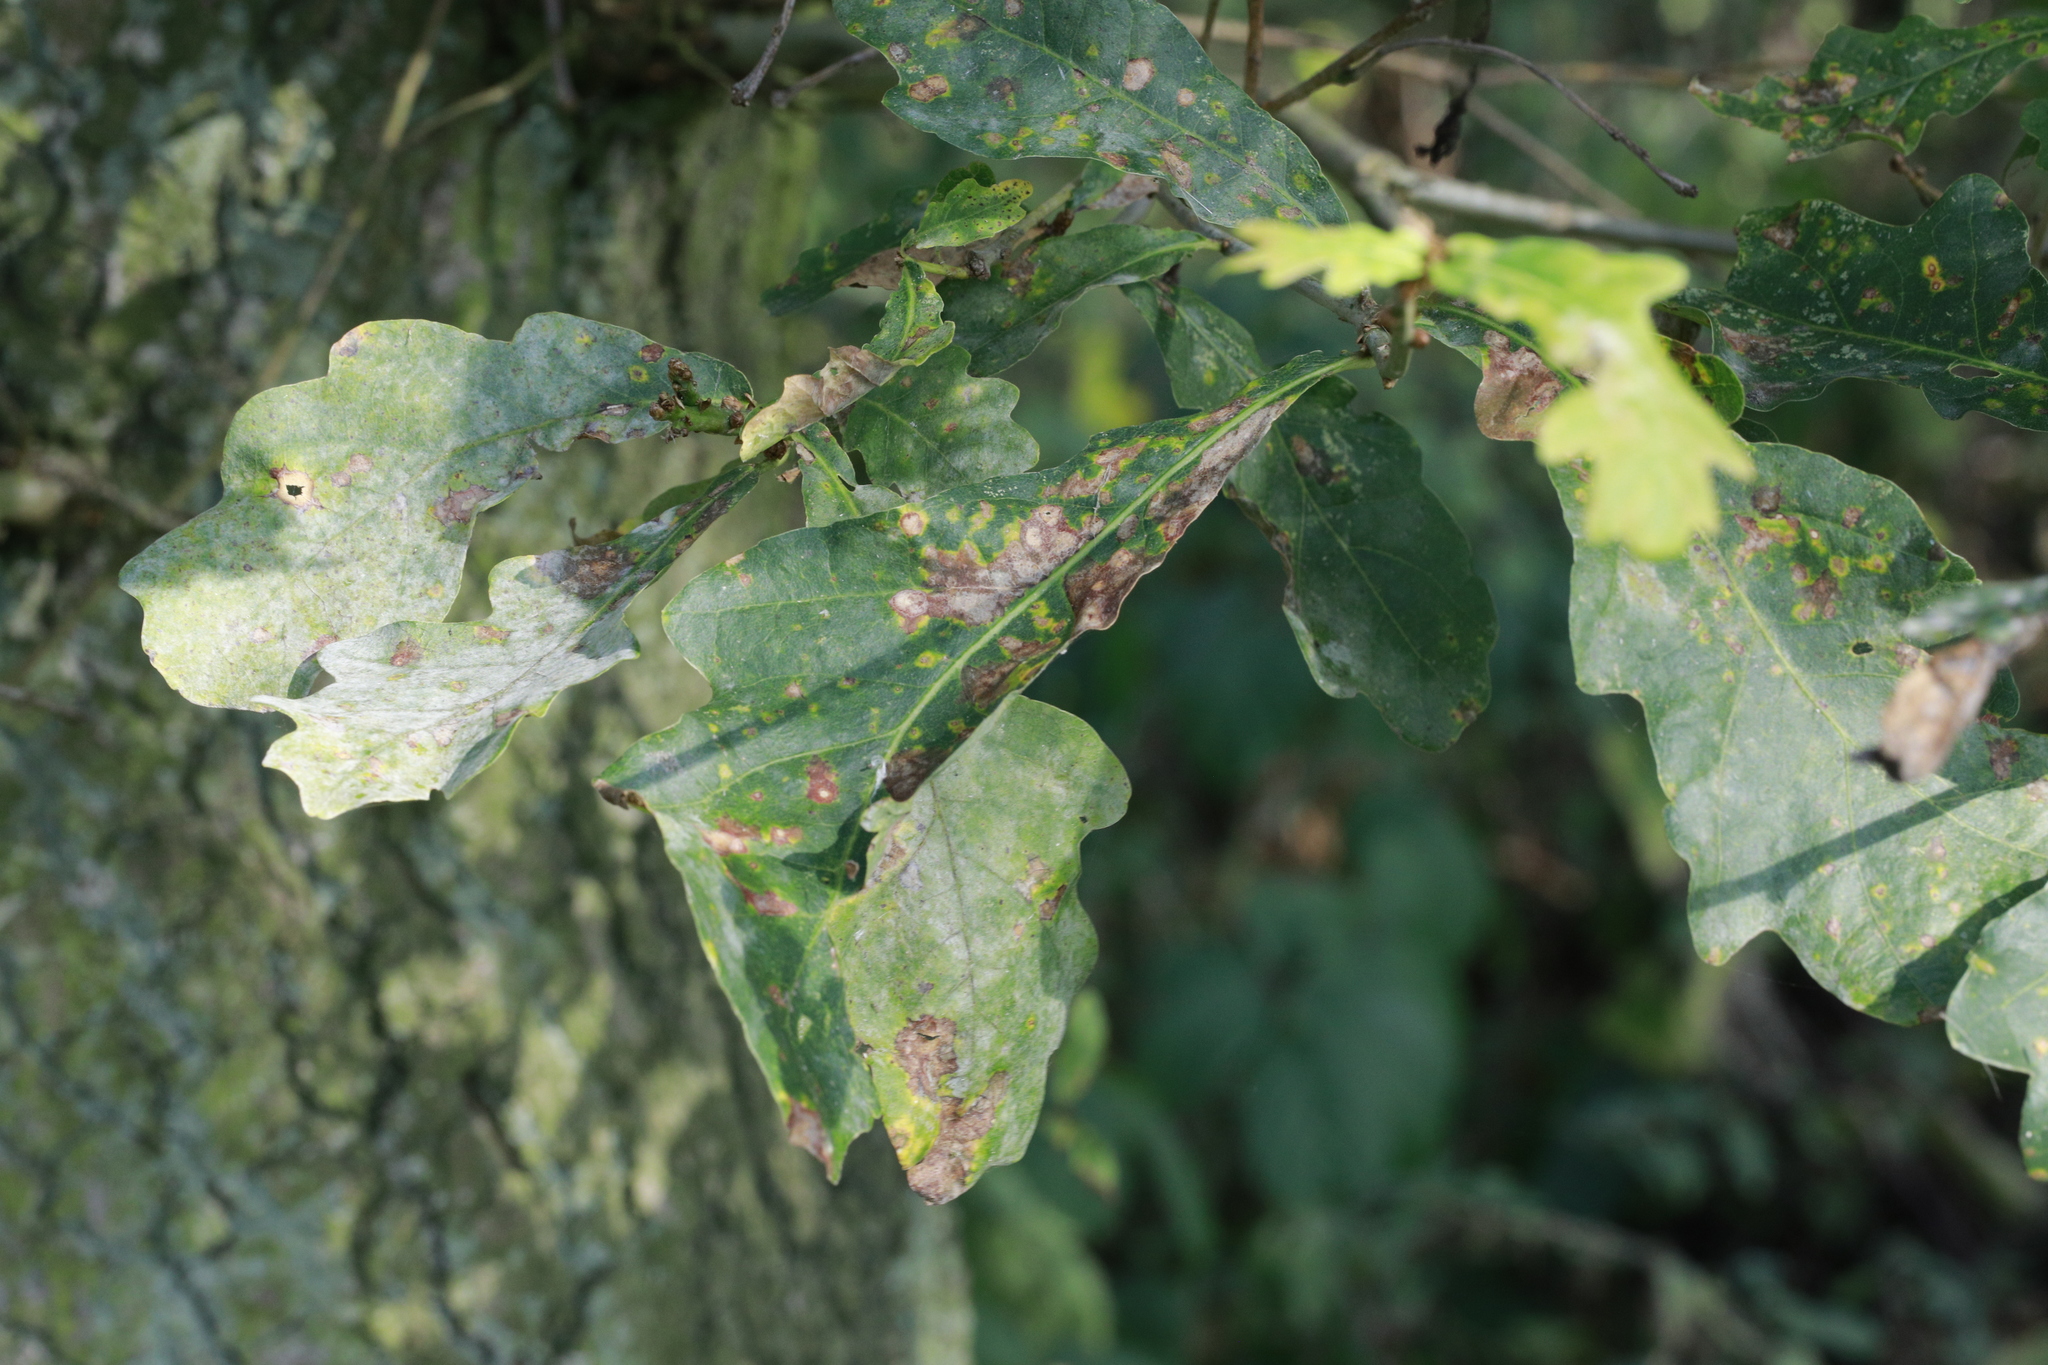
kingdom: Fungi
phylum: Ascomycota
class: Leotiomycetes
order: Helotiales
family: Erysiphaceae
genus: Erysiphe
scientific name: Erysiphe alphitoides
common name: Oak mildew
